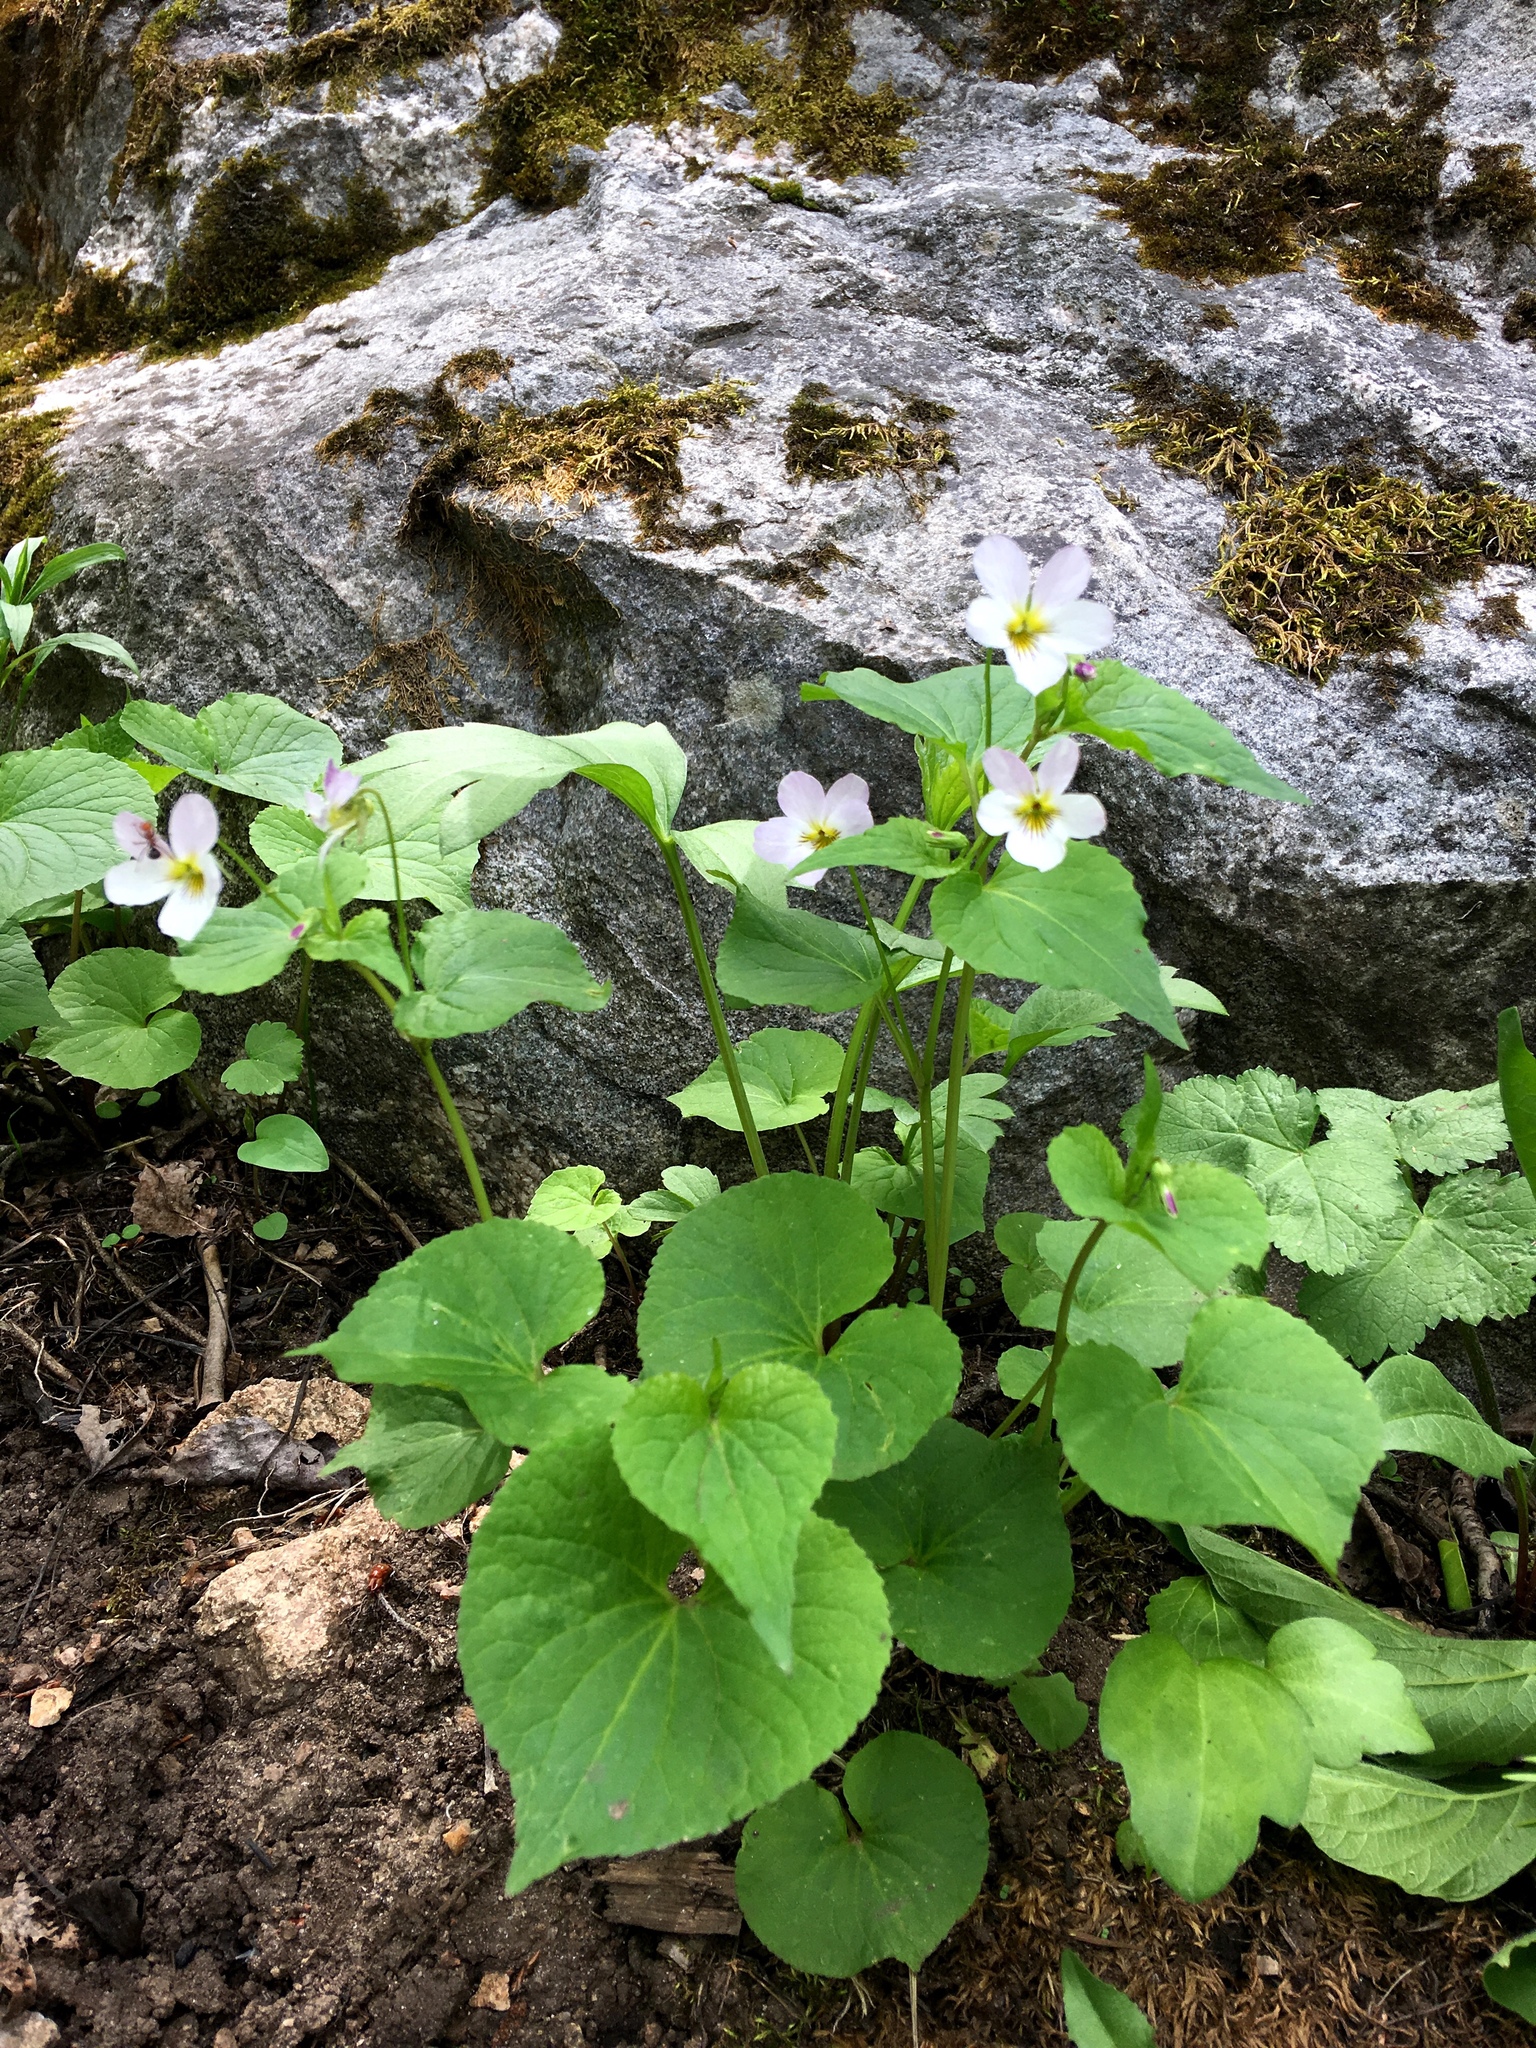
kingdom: Plantae
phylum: Tracheophyta
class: Magnoliopsida
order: Malpighiales
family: Violaceae
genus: Viola
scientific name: Viola canadensis
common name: Canada violet
